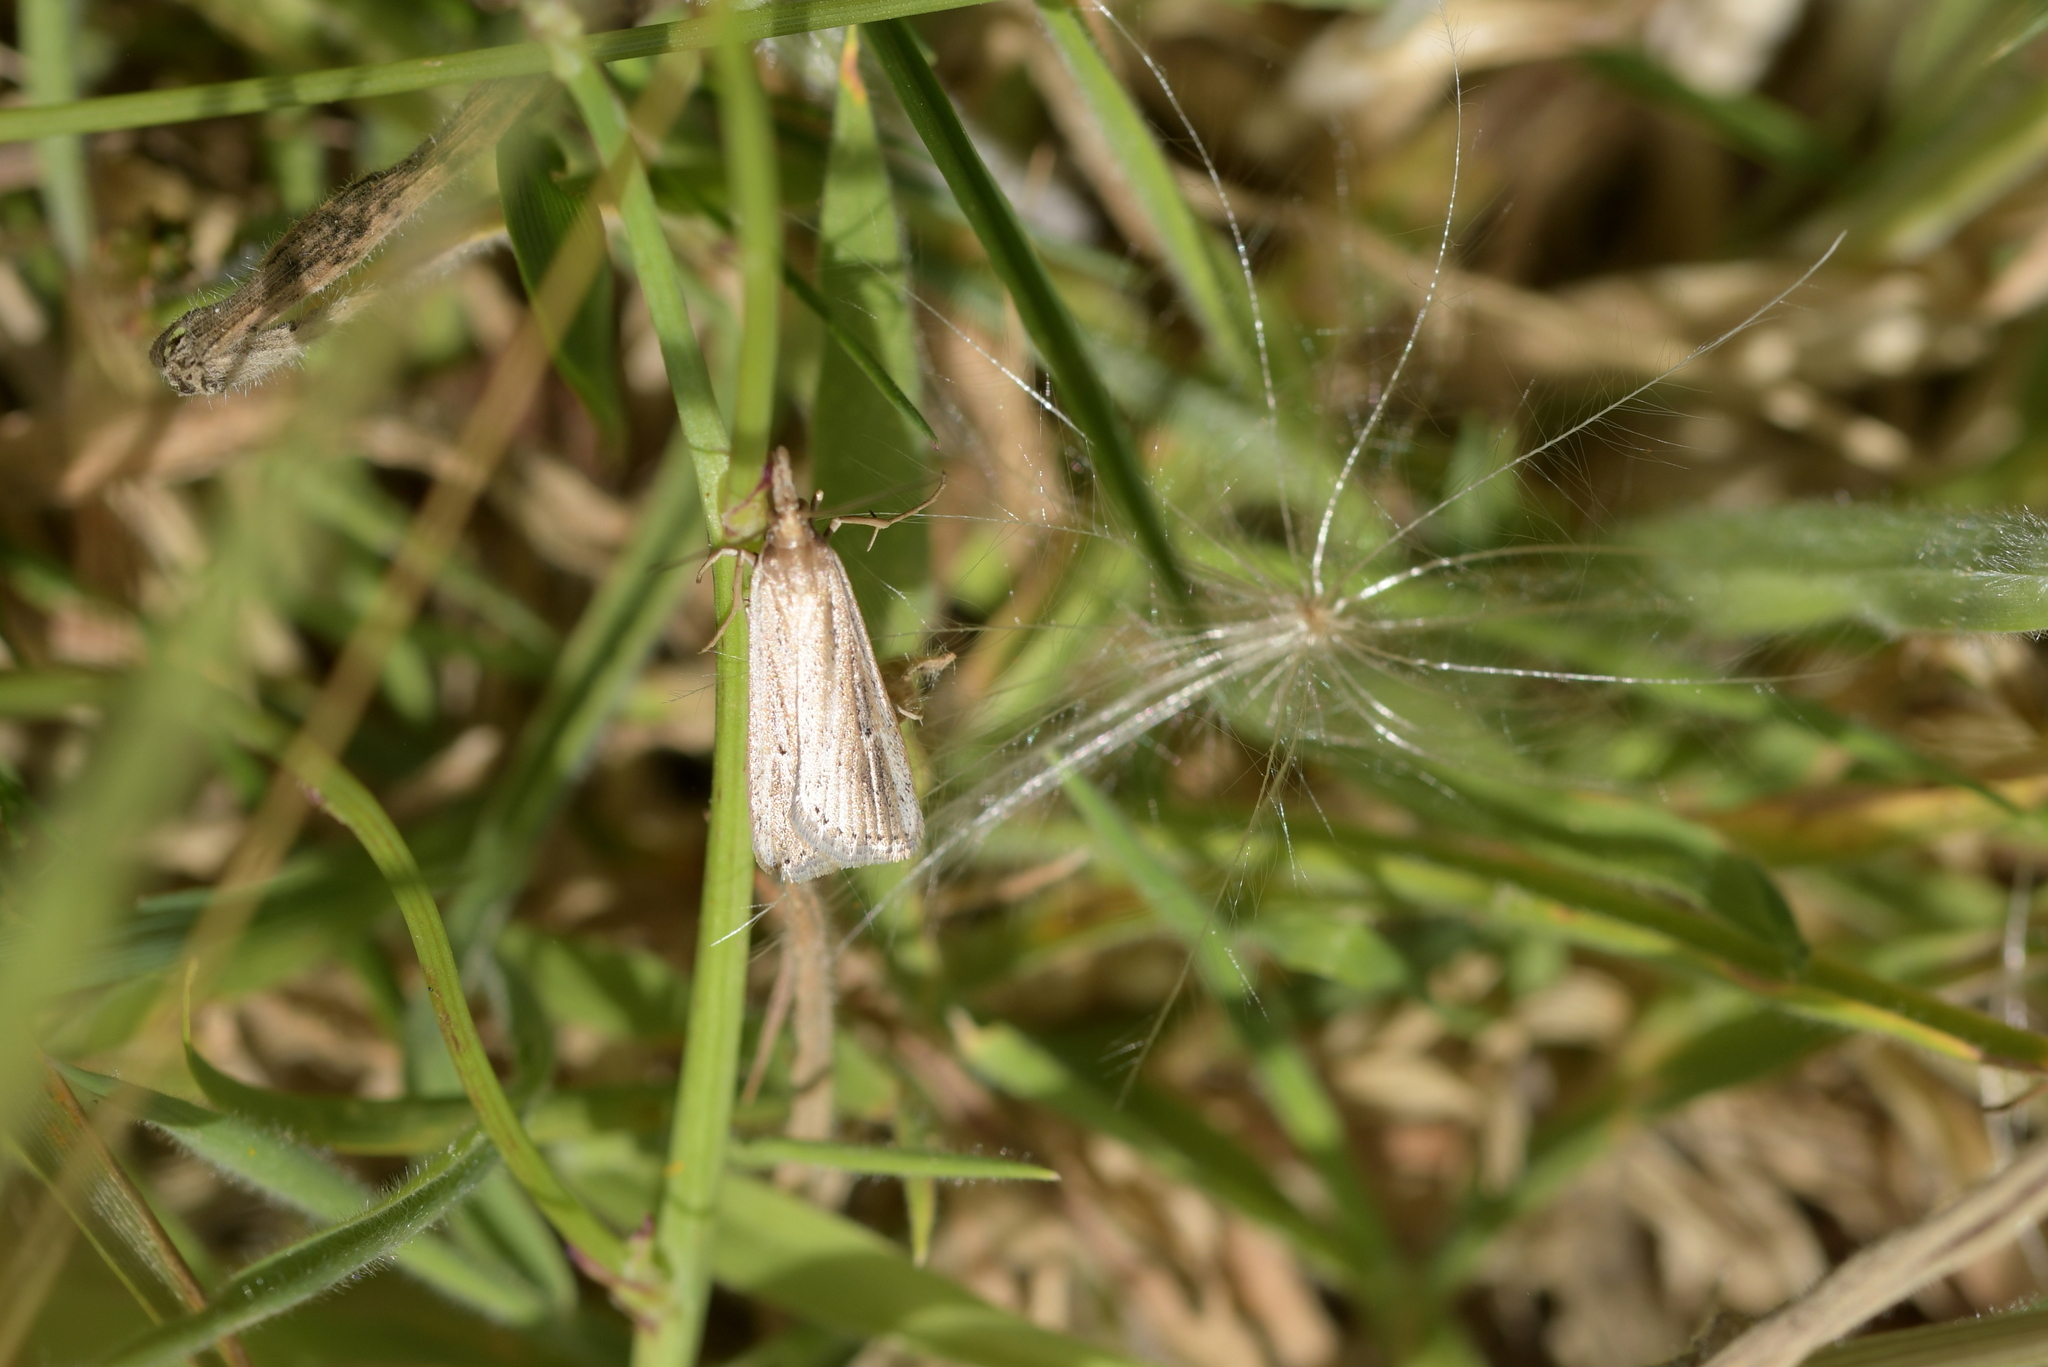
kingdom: Animalia
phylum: Arthropoda
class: Insecta
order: Lepidoptera
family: Crambidae
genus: Eudonia
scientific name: Eudonia sabulosella
